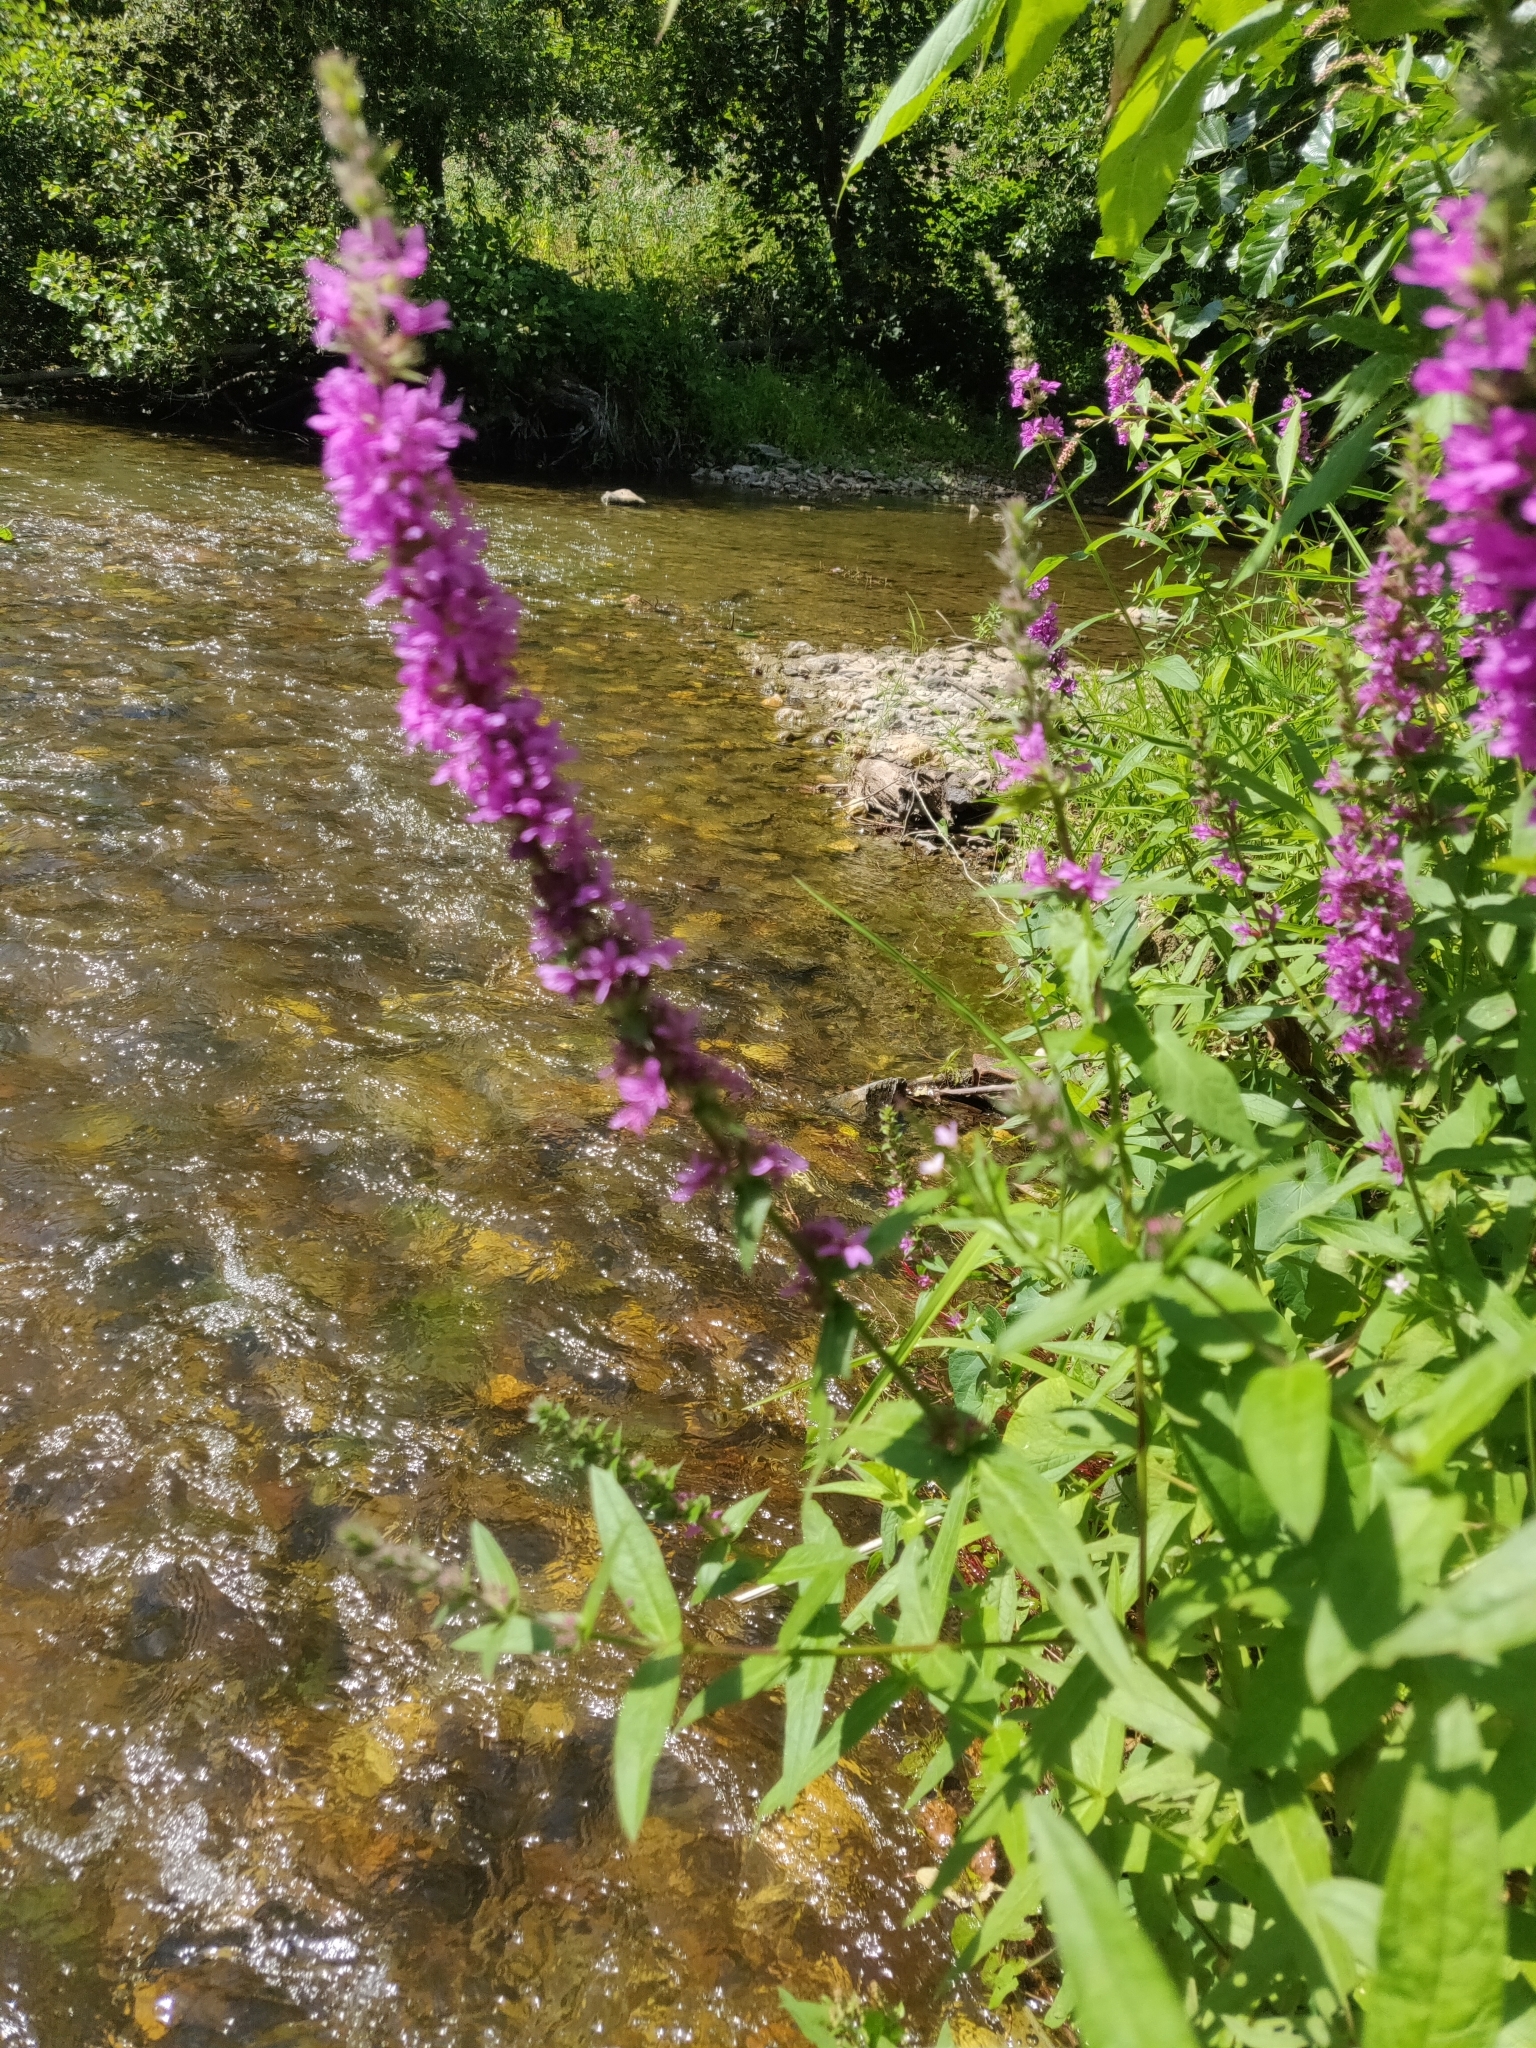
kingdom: Plantae
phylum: Tracheophyta
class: Magnoliopsida
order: Myrtales
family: Lythraceae
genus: Lythrum
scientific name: Lythrum salicaria
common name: Purple loosestrife
